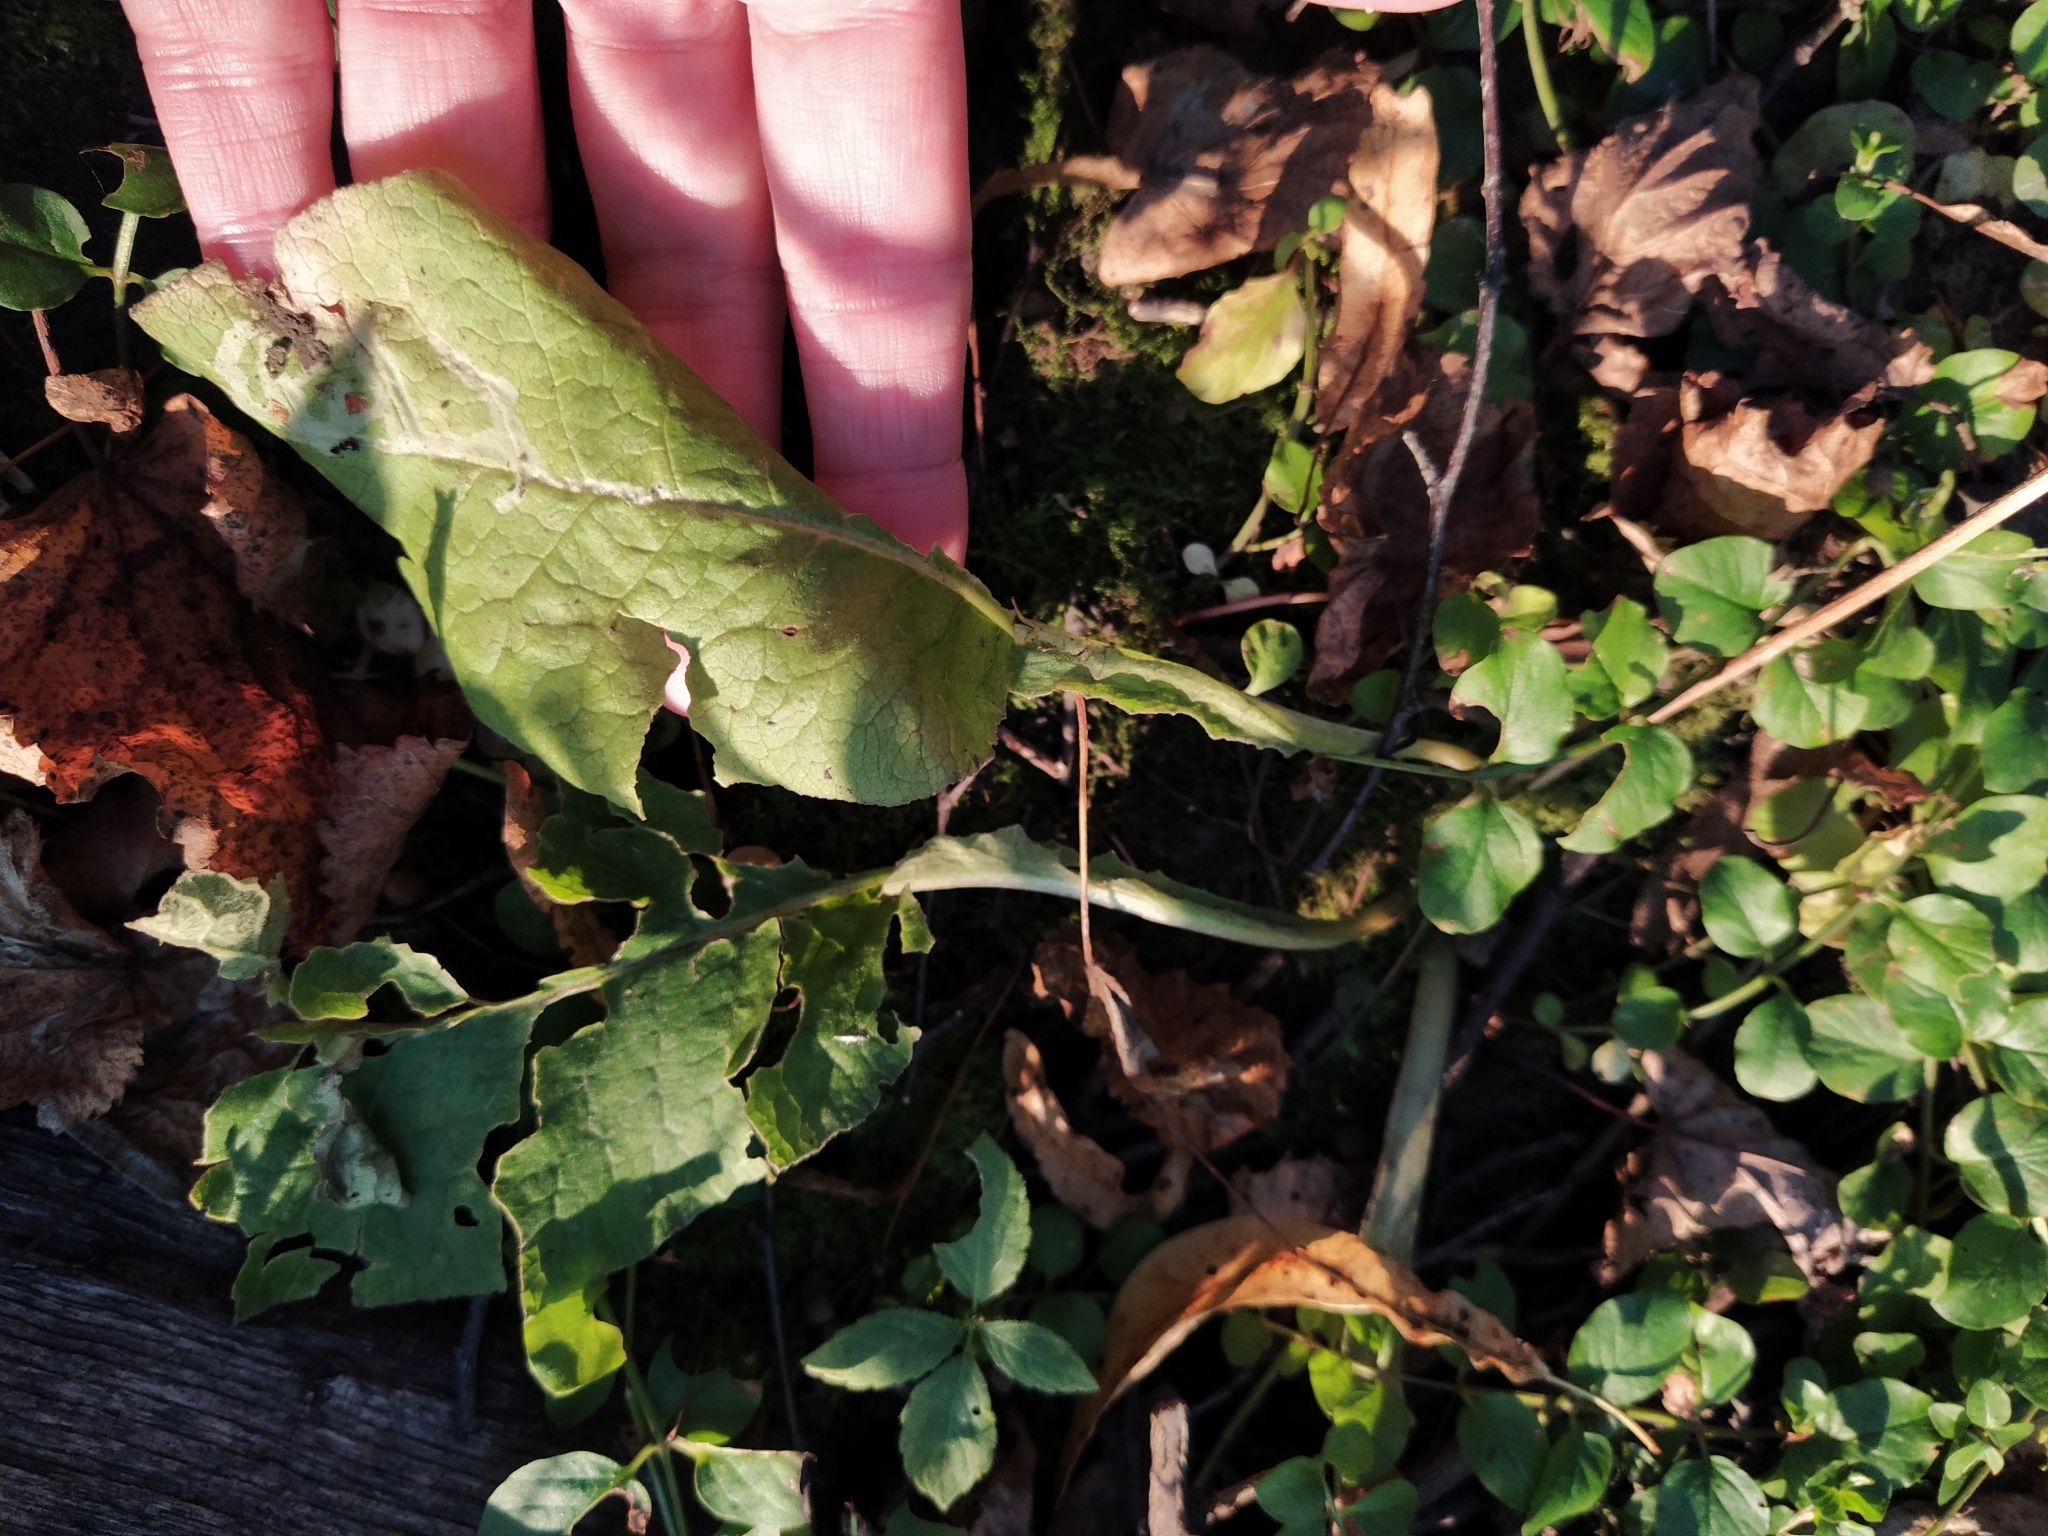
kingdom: Plantae
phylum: Tracheophyta
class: Magnoliopsida
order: Ericales
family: Primulaceae
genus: Primula
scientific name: Primula veris
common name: Cowslip
